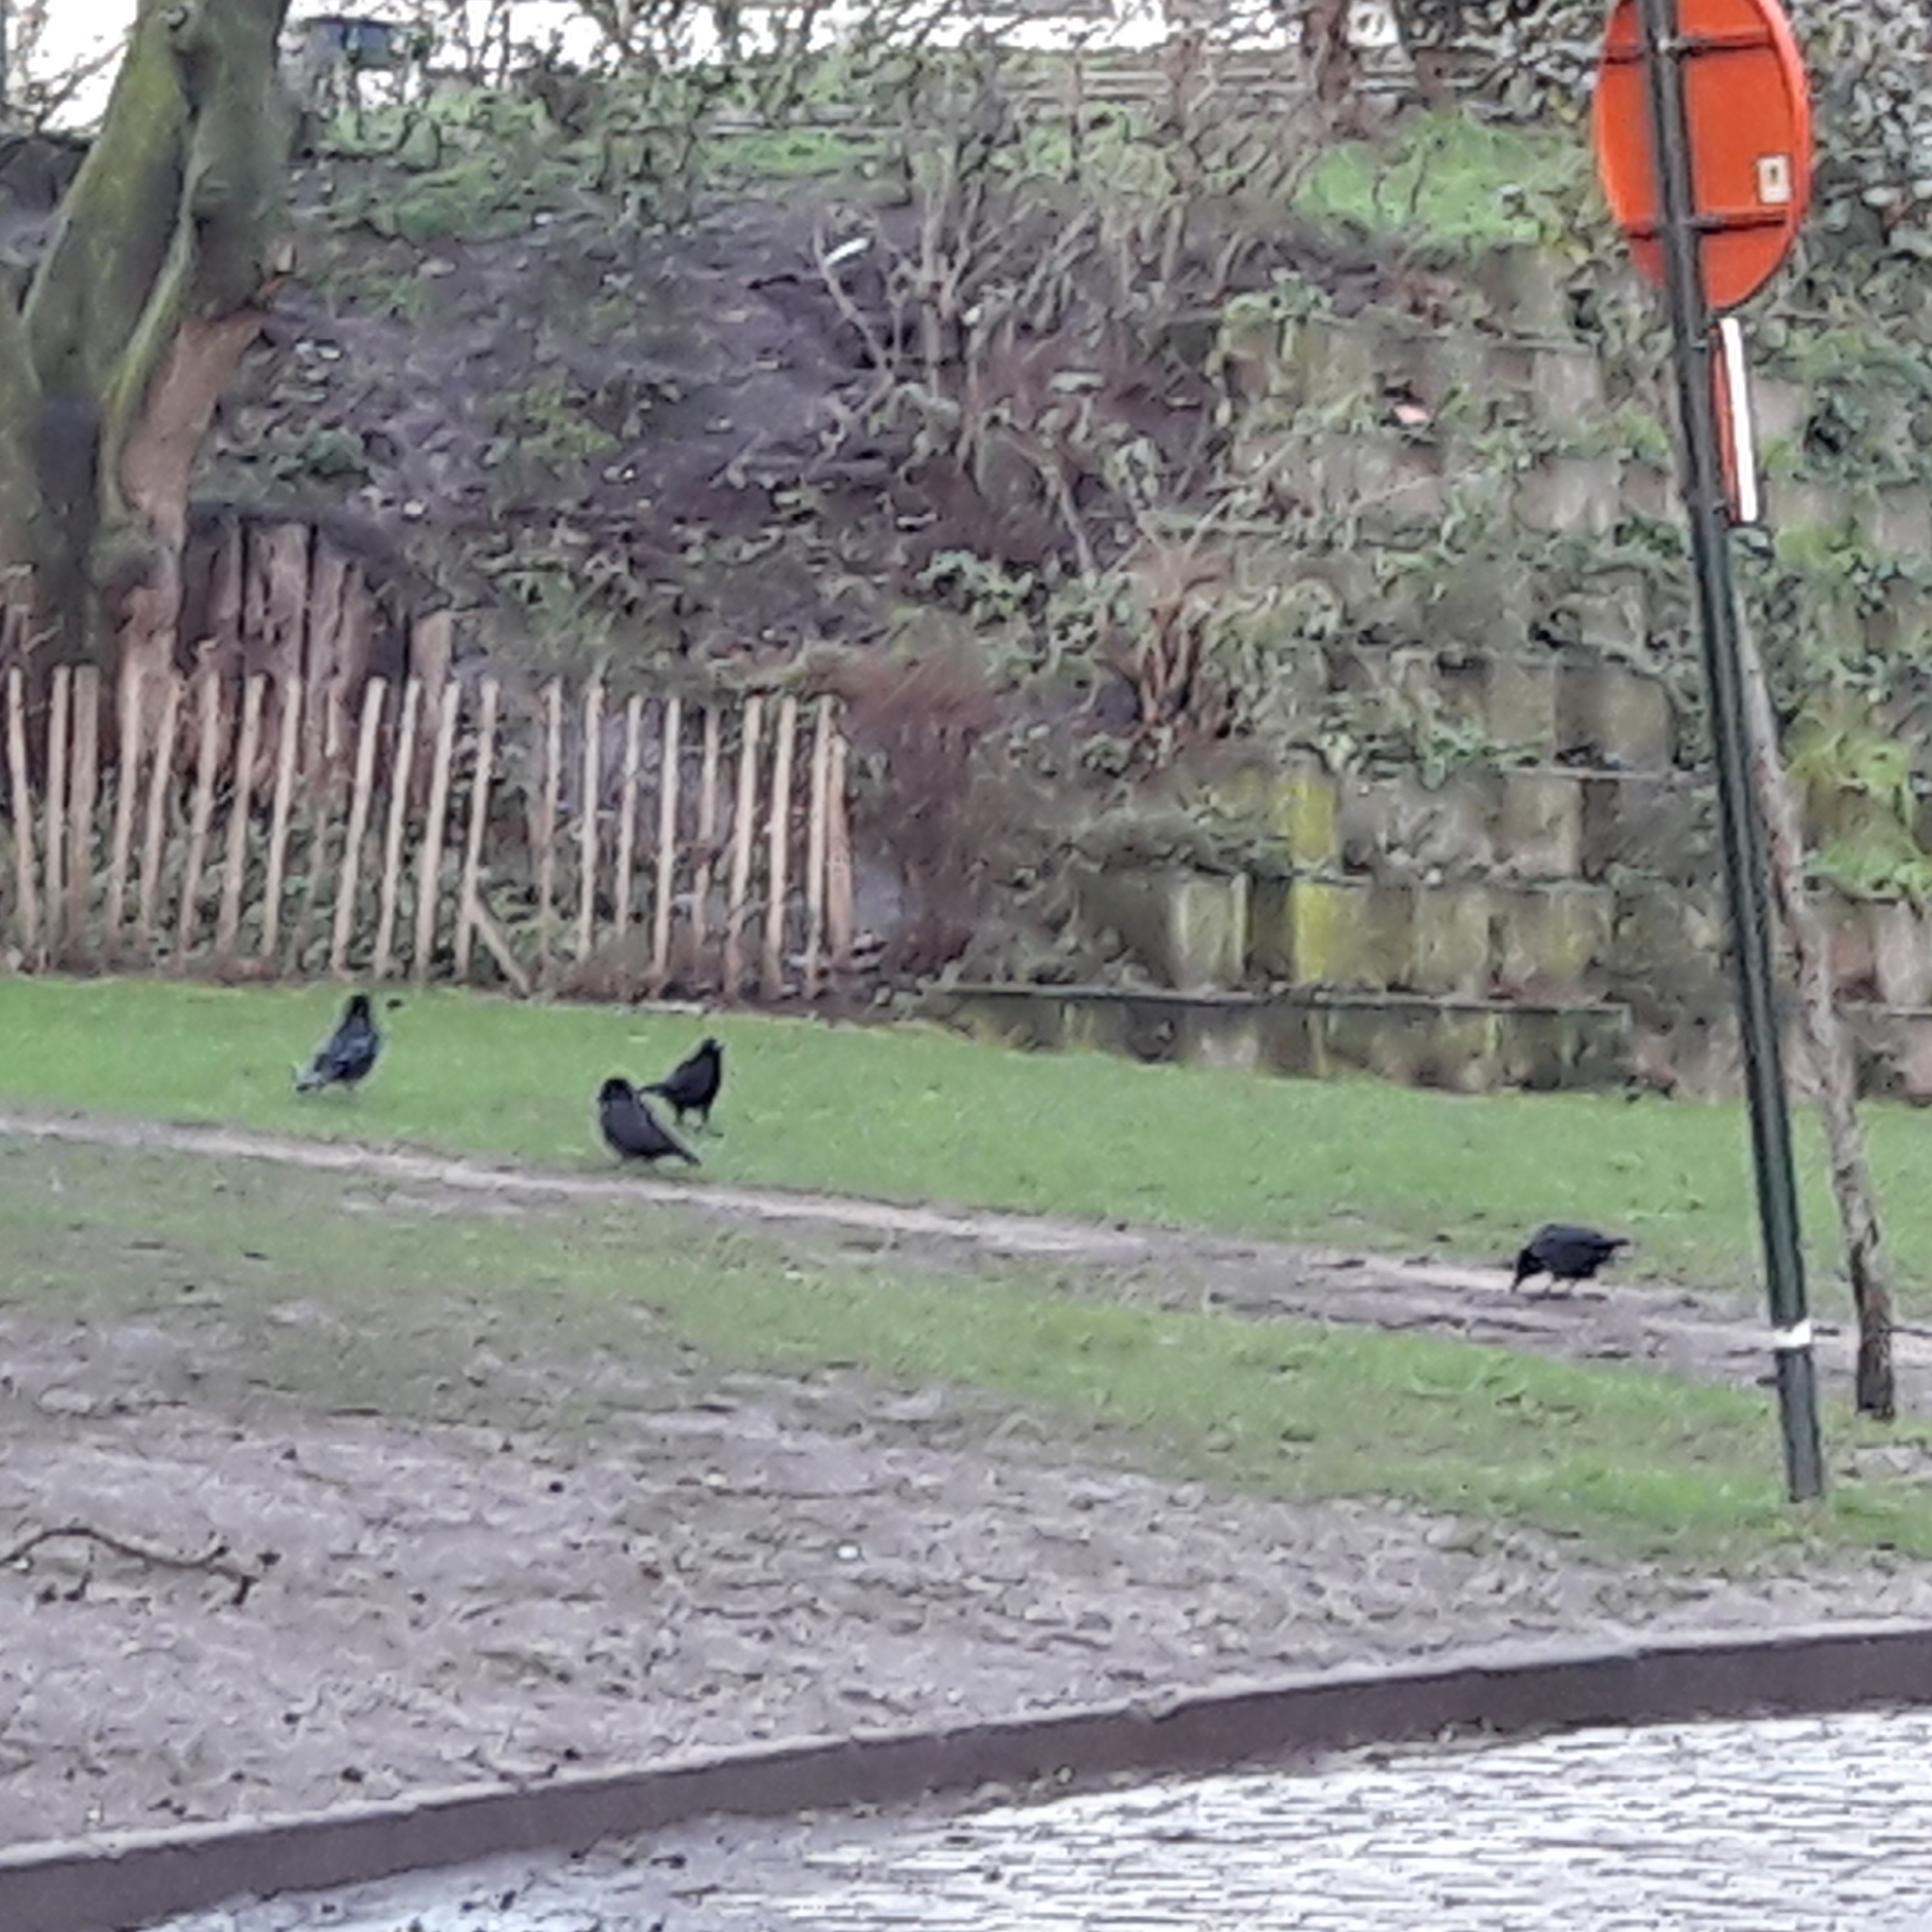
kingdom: Animalia
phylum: Chordata
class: Aves
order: Passeriformes
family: Corvidae
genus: Corvus
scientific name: Corvus corone
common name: Carrion crow
